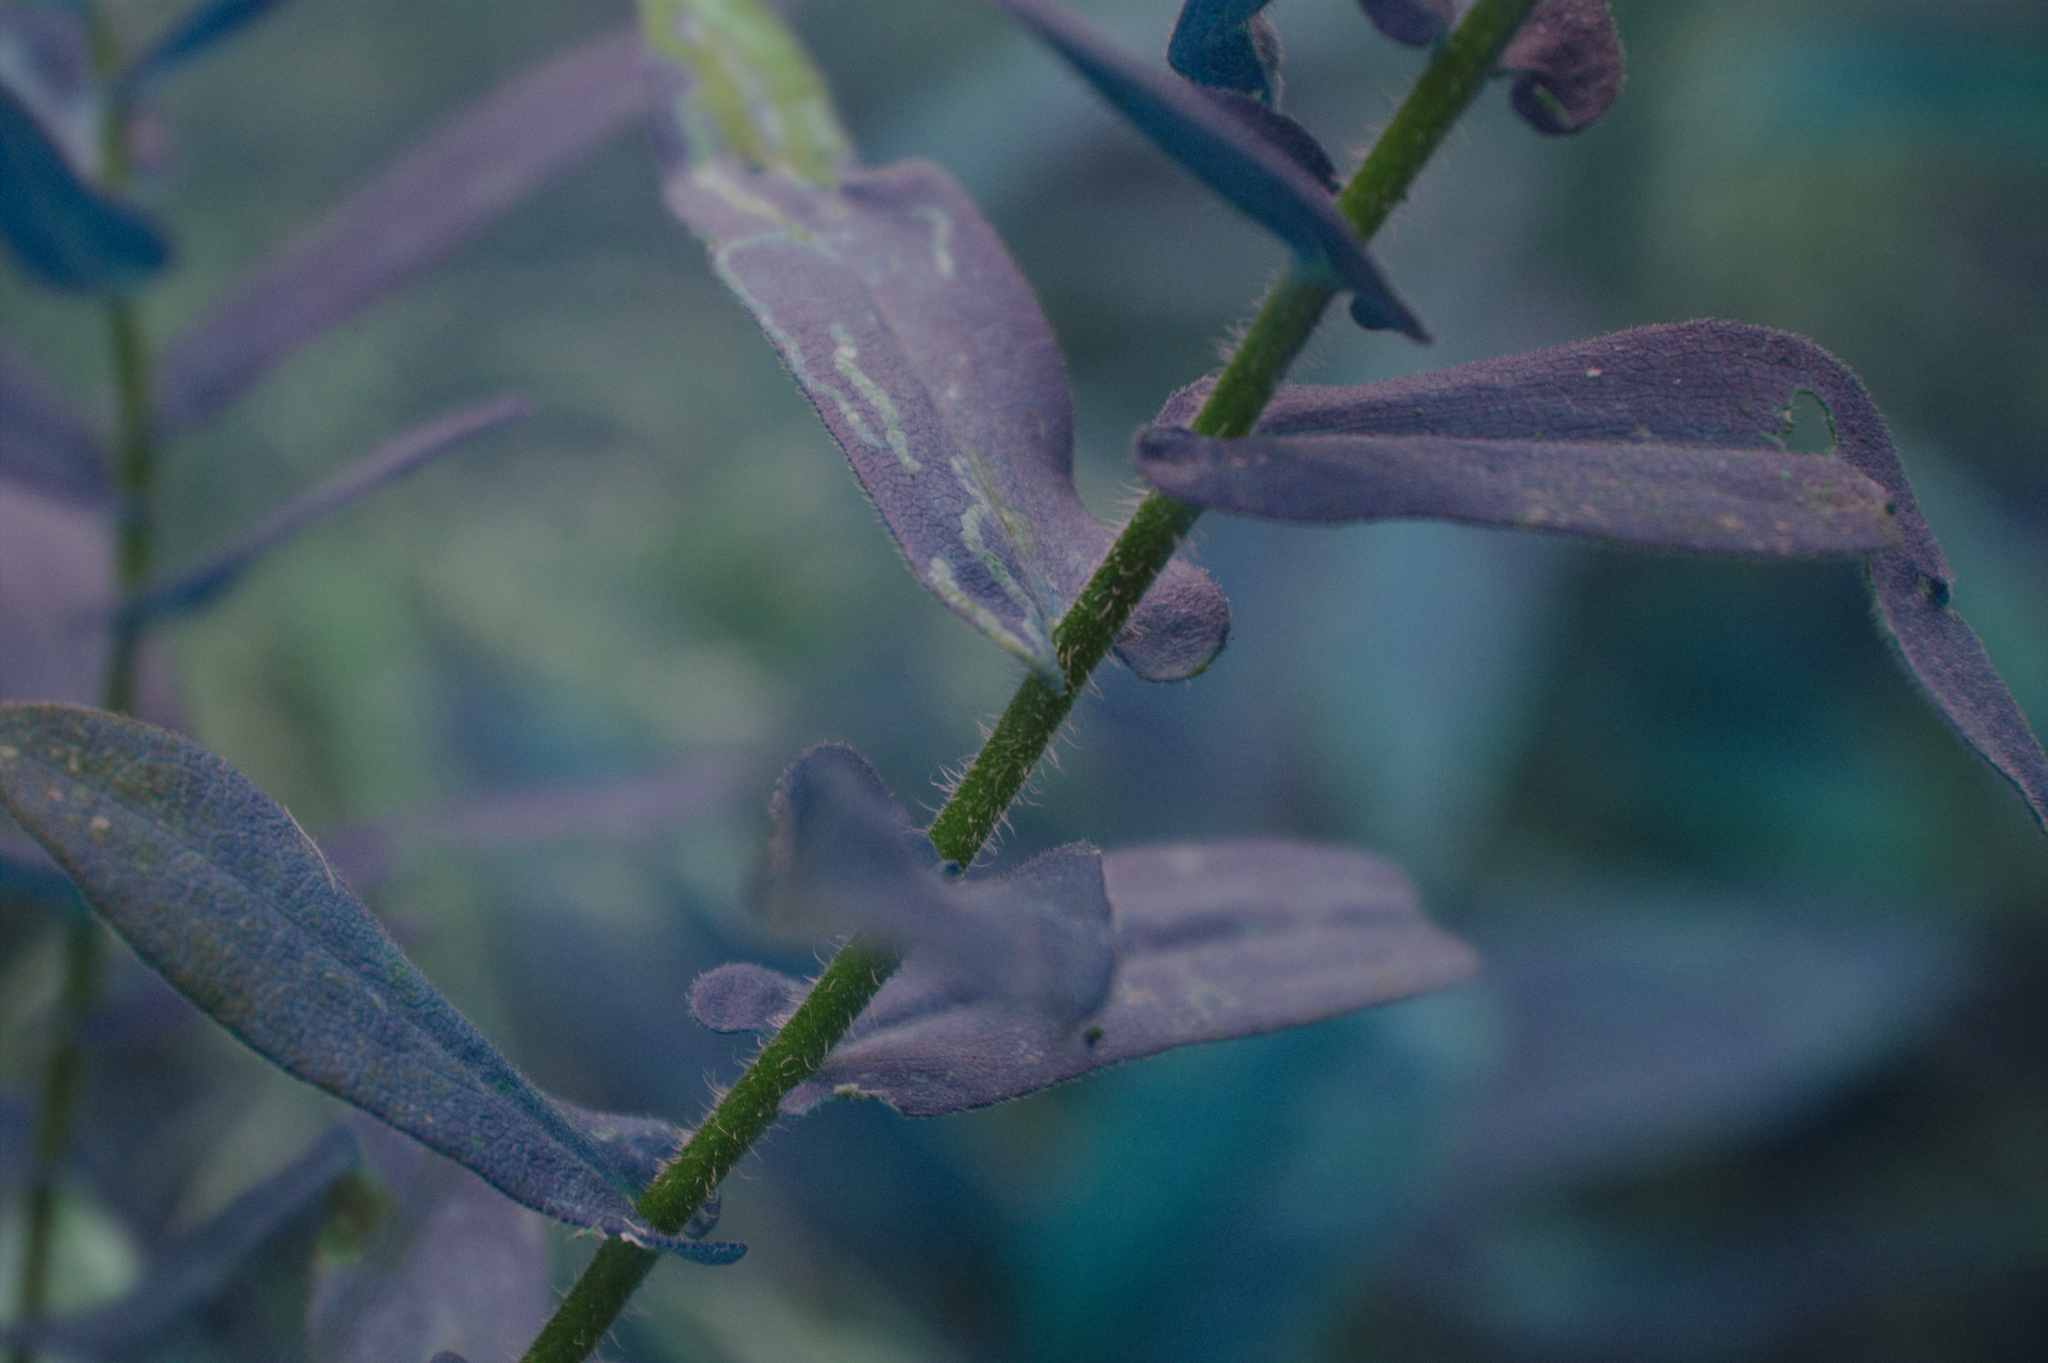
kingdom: Plantae
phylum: Tracheophyta
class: Magnoliopsida
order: Asterales
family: Asteraceae
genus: Symphyotrichum
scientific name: Symphyotrichum novae-angliae
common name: Michaelmas daisy
